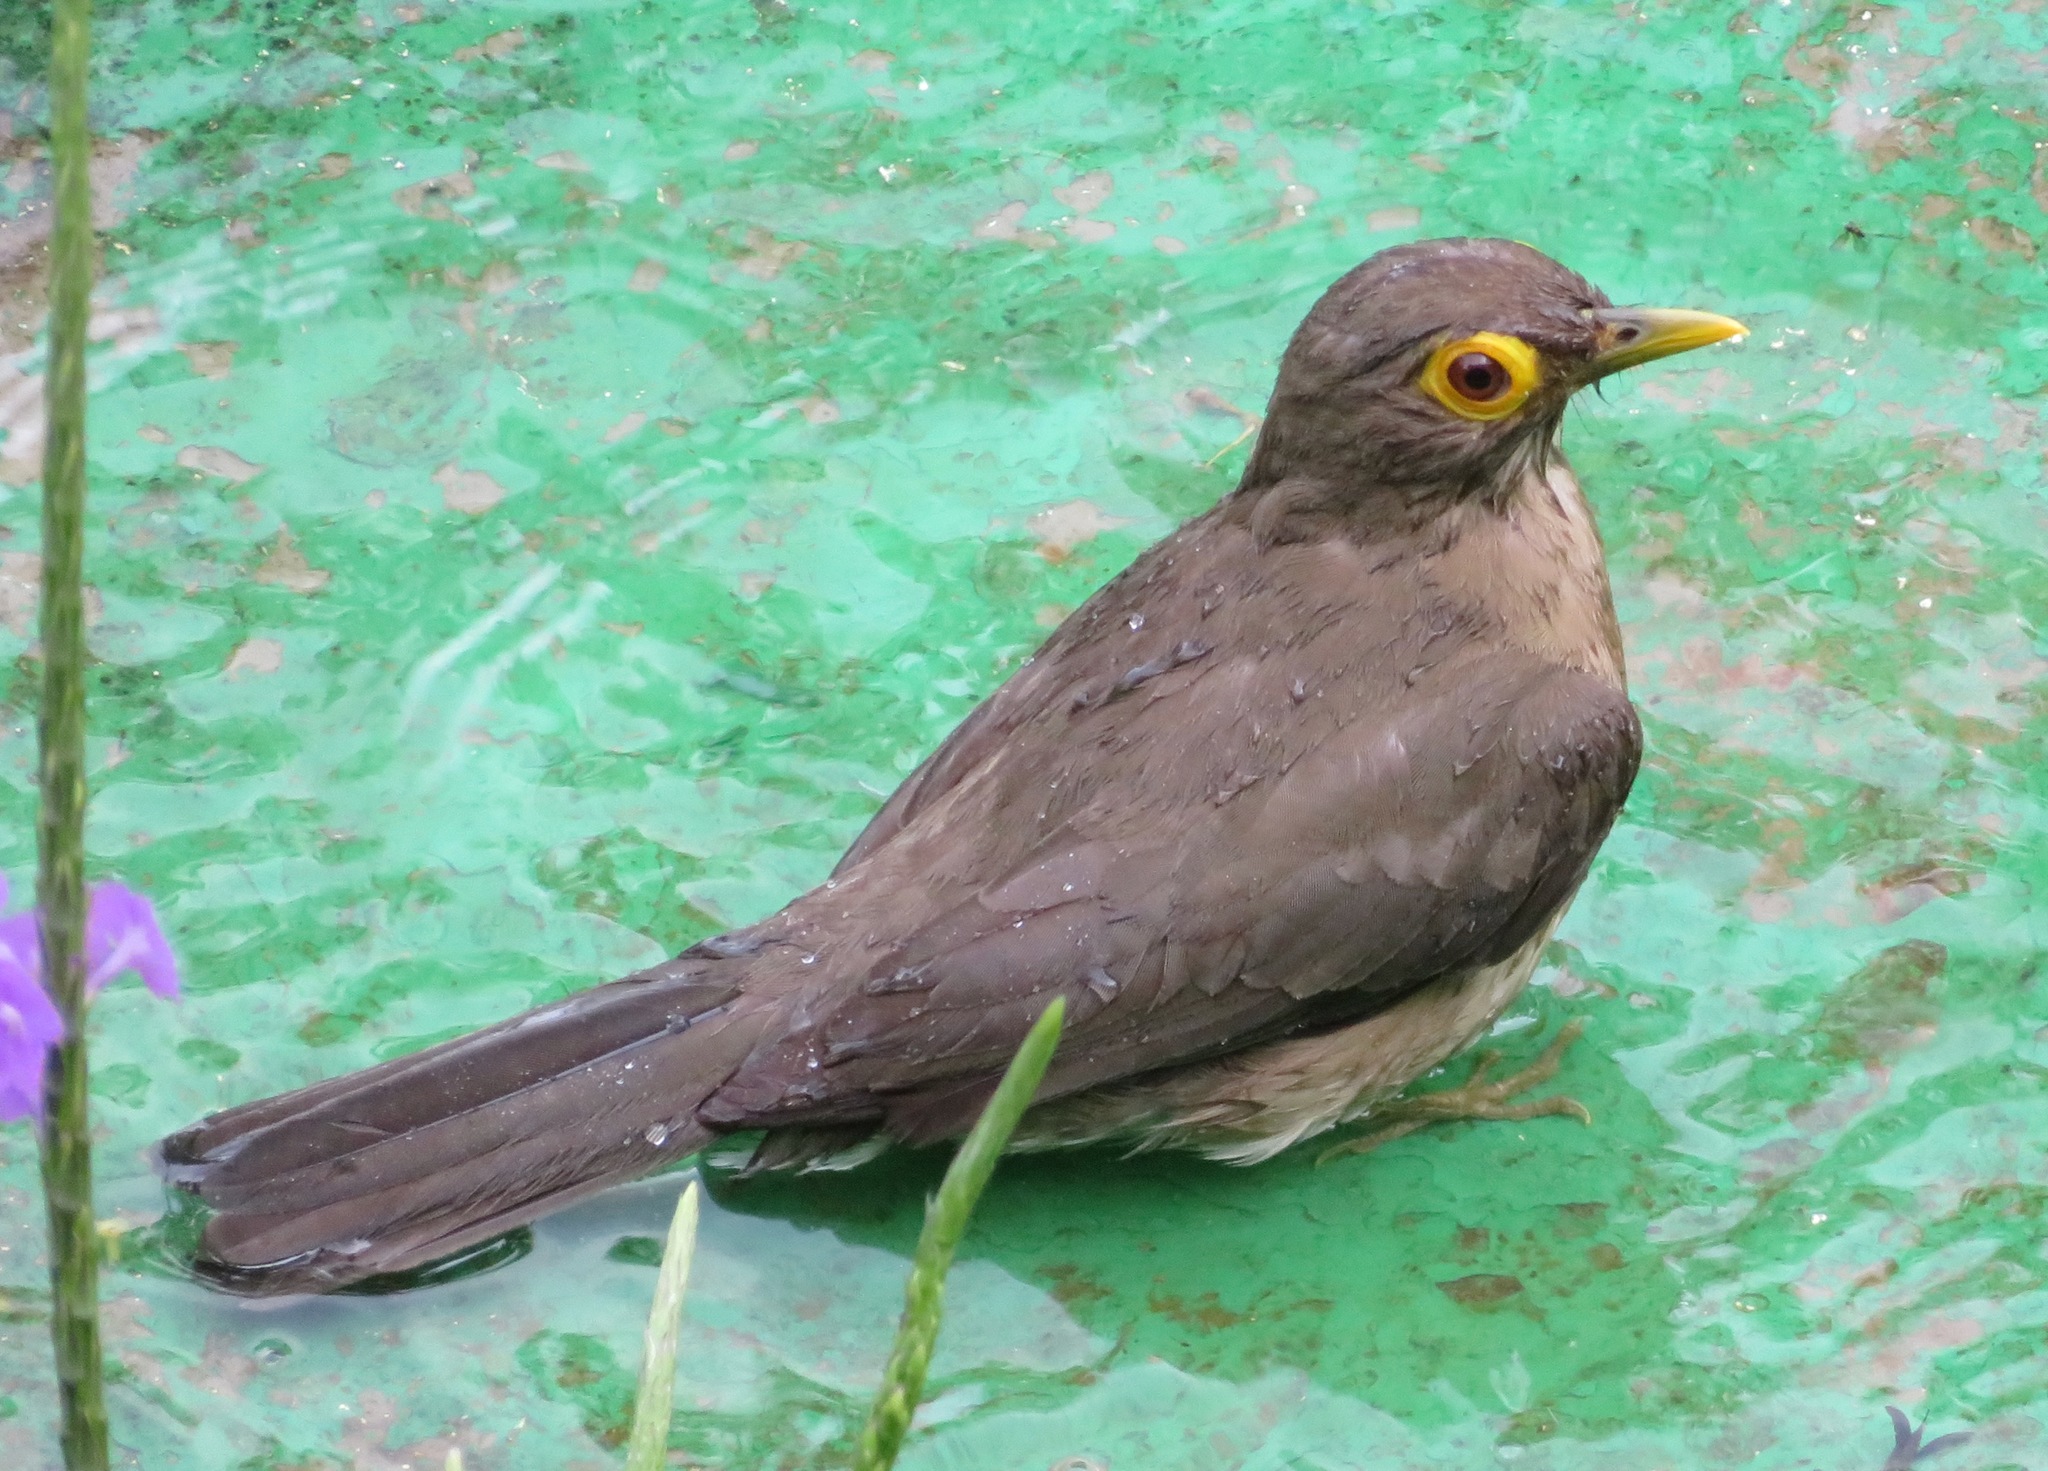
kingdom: Animalia
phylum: Chordata
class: Aves
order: Passeriformes
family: Turdidae
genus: Turdus
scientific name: Turdus nudigenis
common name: Spectacled thrush
